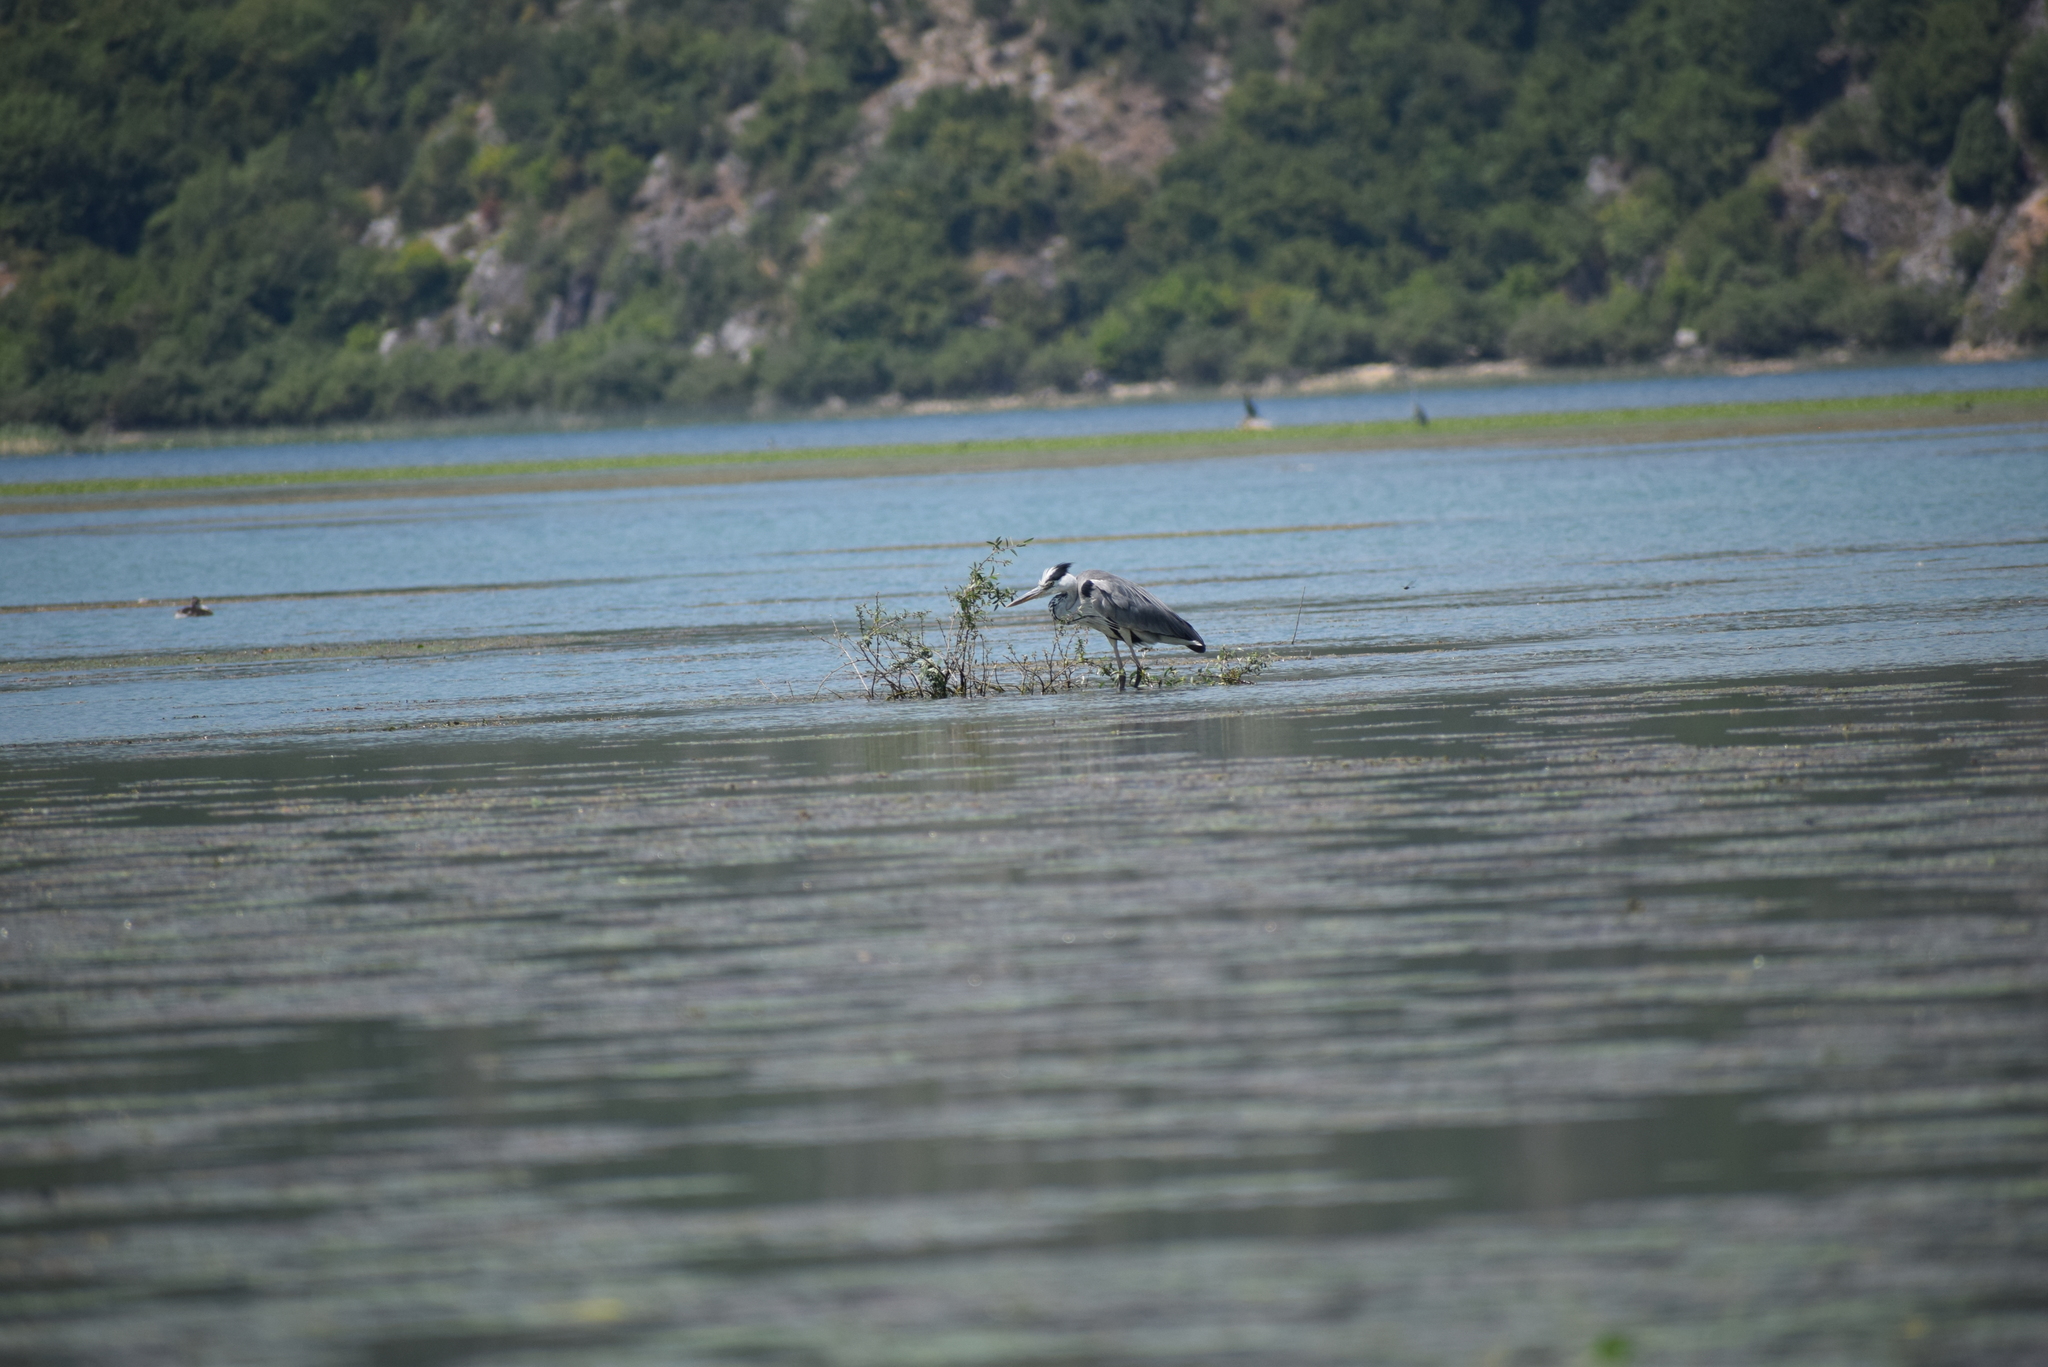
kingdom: Animalia
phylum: Chordata
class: Aves
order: Pelecaniformes
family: Ardeidae
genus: Ardea
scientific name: Ardea cinerea
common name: Grey heron
